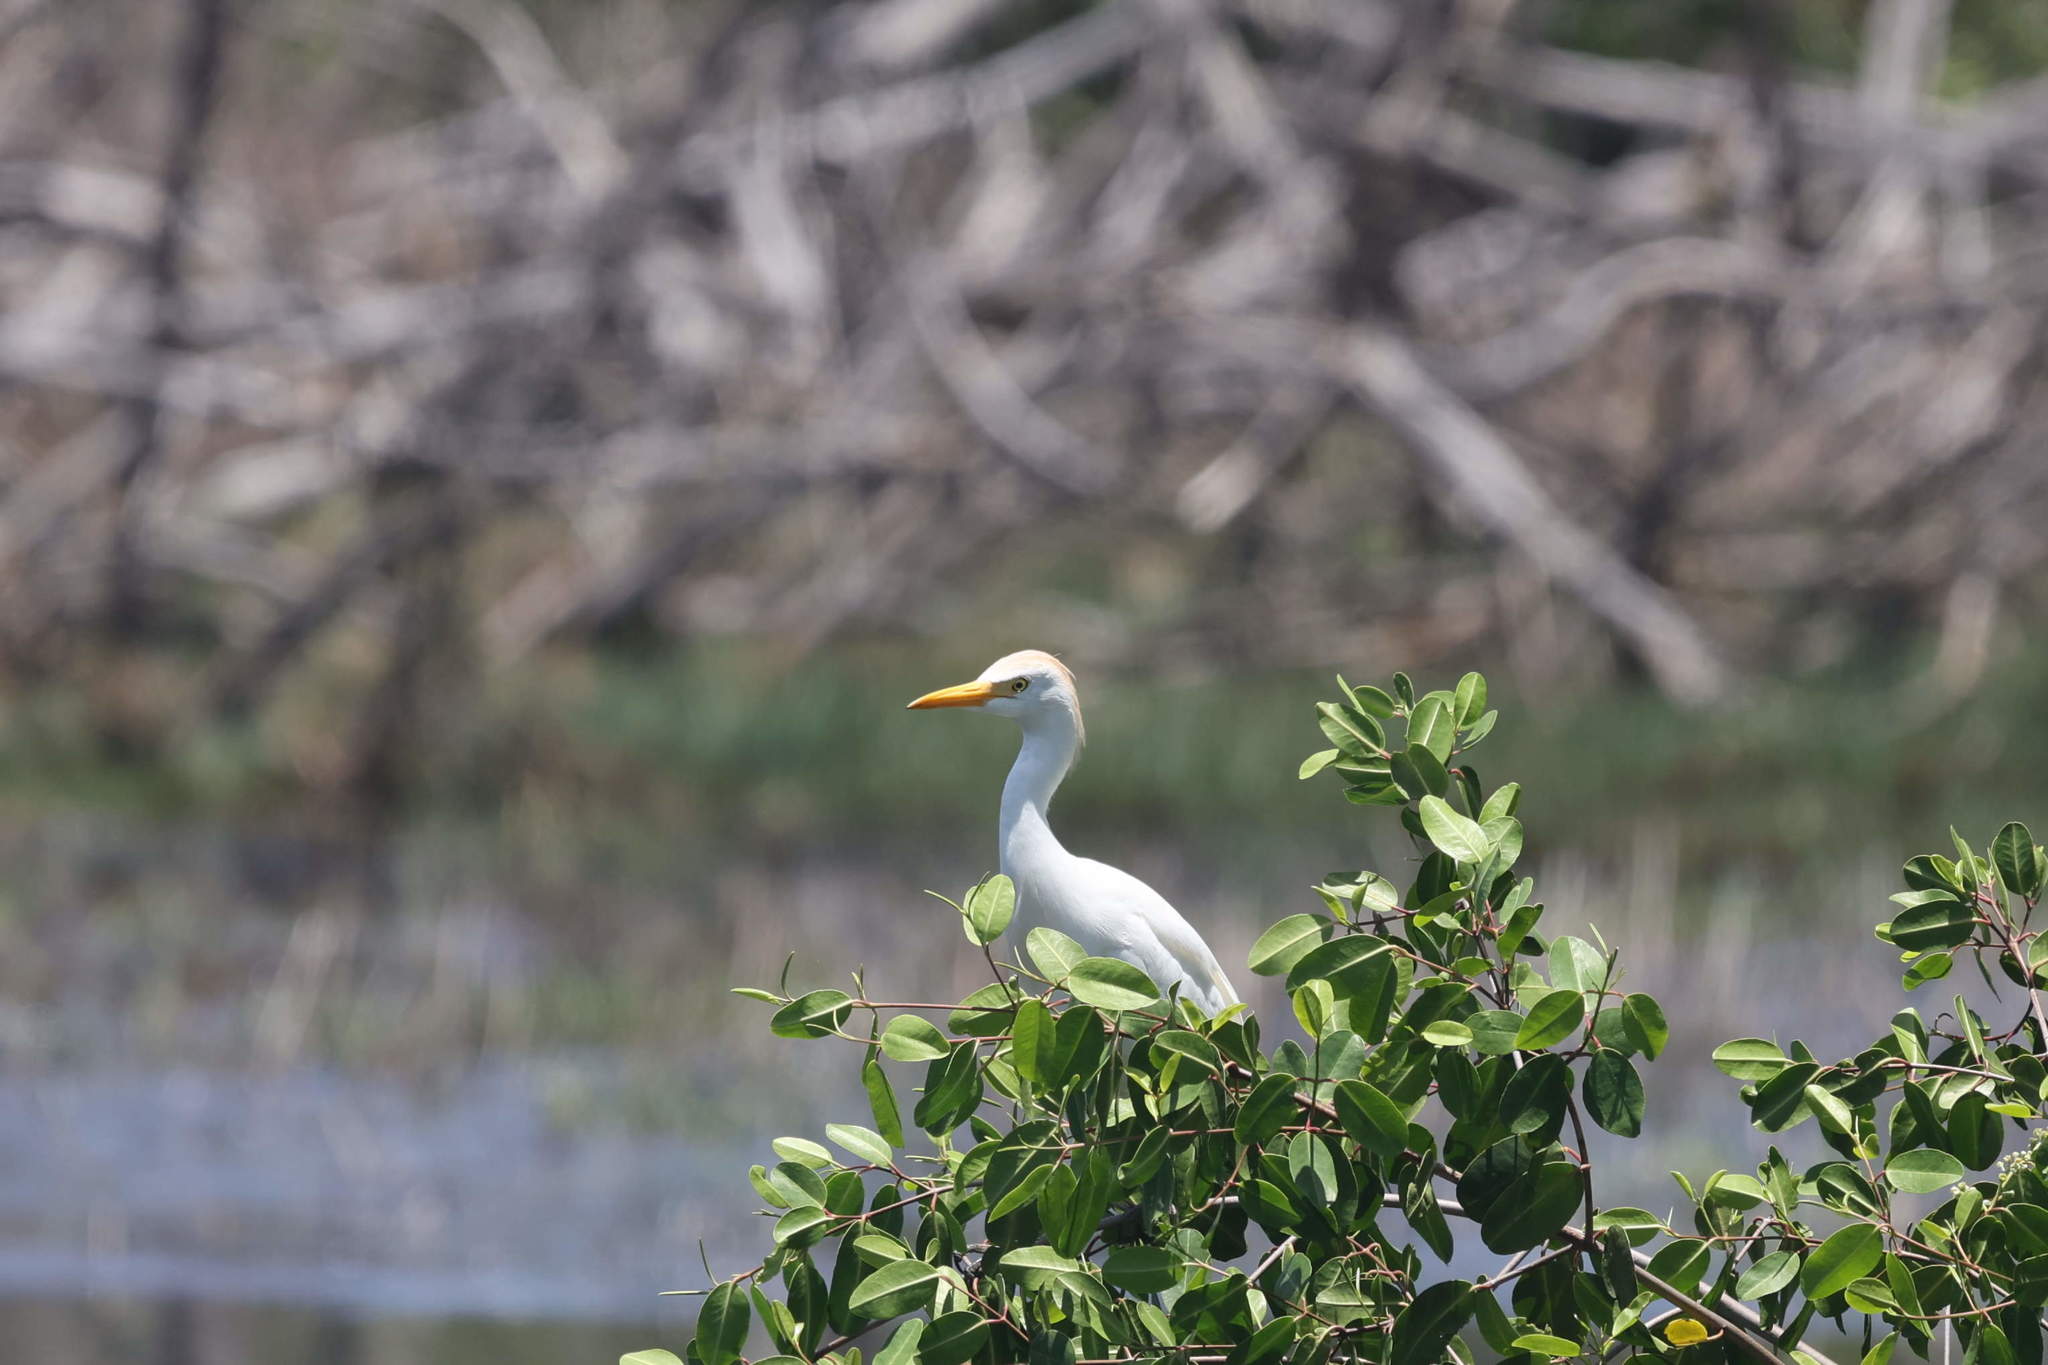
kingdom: Animalia
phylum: Chordata
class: Aves
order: Pelecaniformes
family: Ardeidae
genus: Bubulcus
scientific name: Bubulcus ibis
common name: Cattle egret
